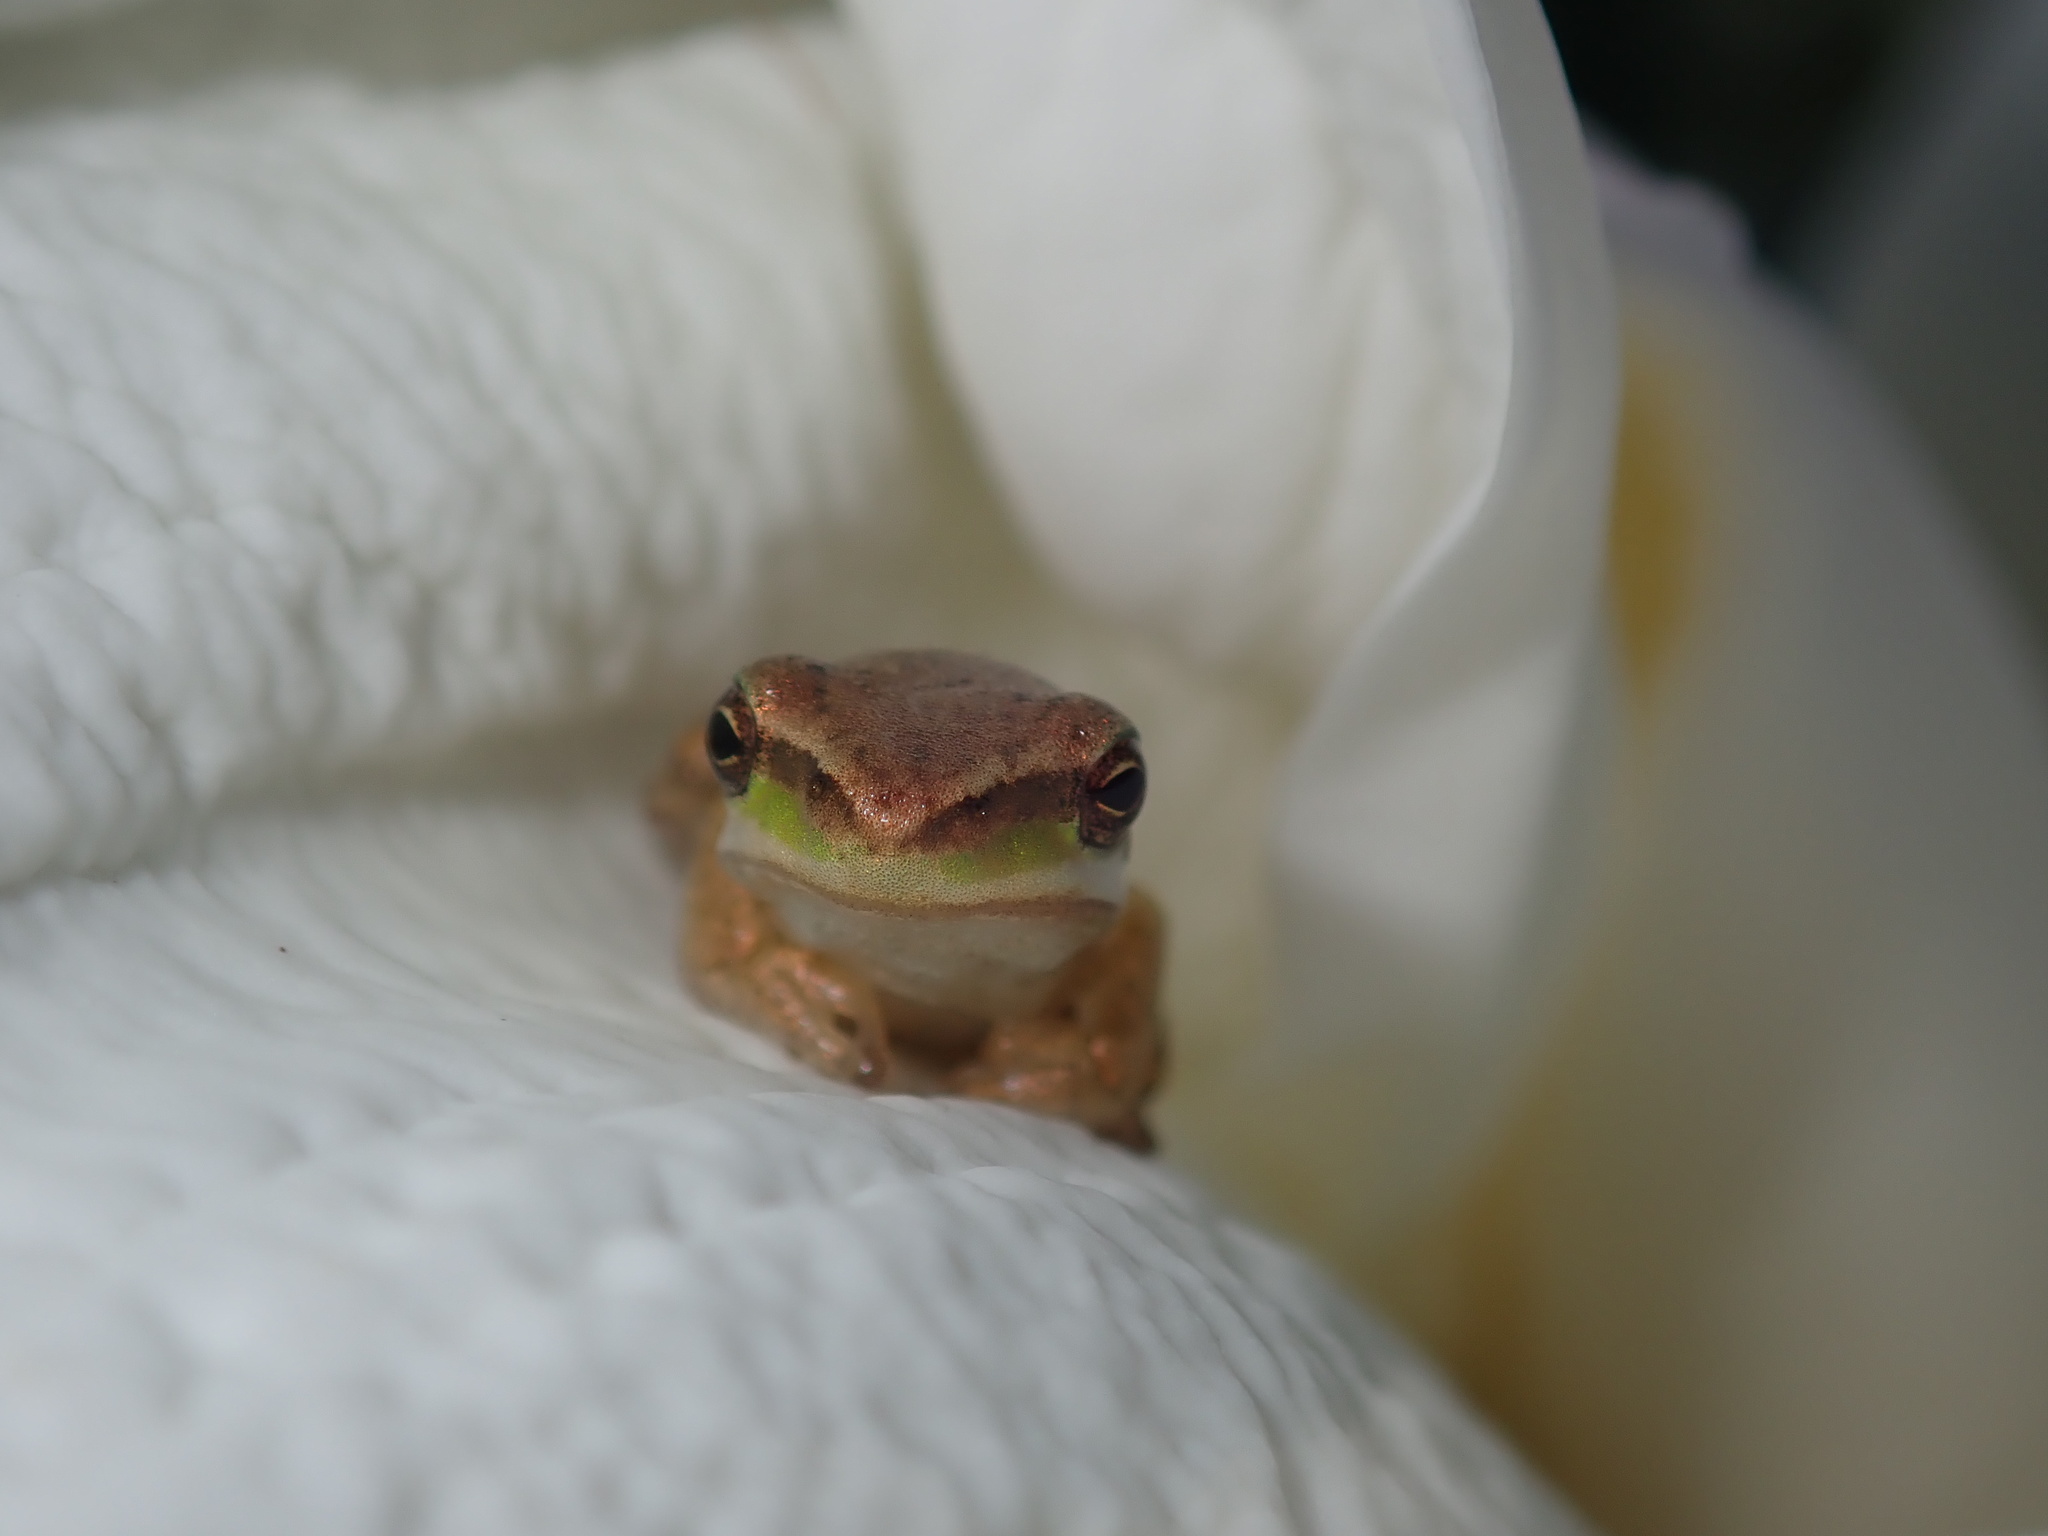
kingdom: Animalia
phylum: Chordata
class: Amphibia
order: Anura
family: Pelodryadidae
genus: Litoria
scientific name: Litoria fallax
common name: Eastern dwarf treefrog
